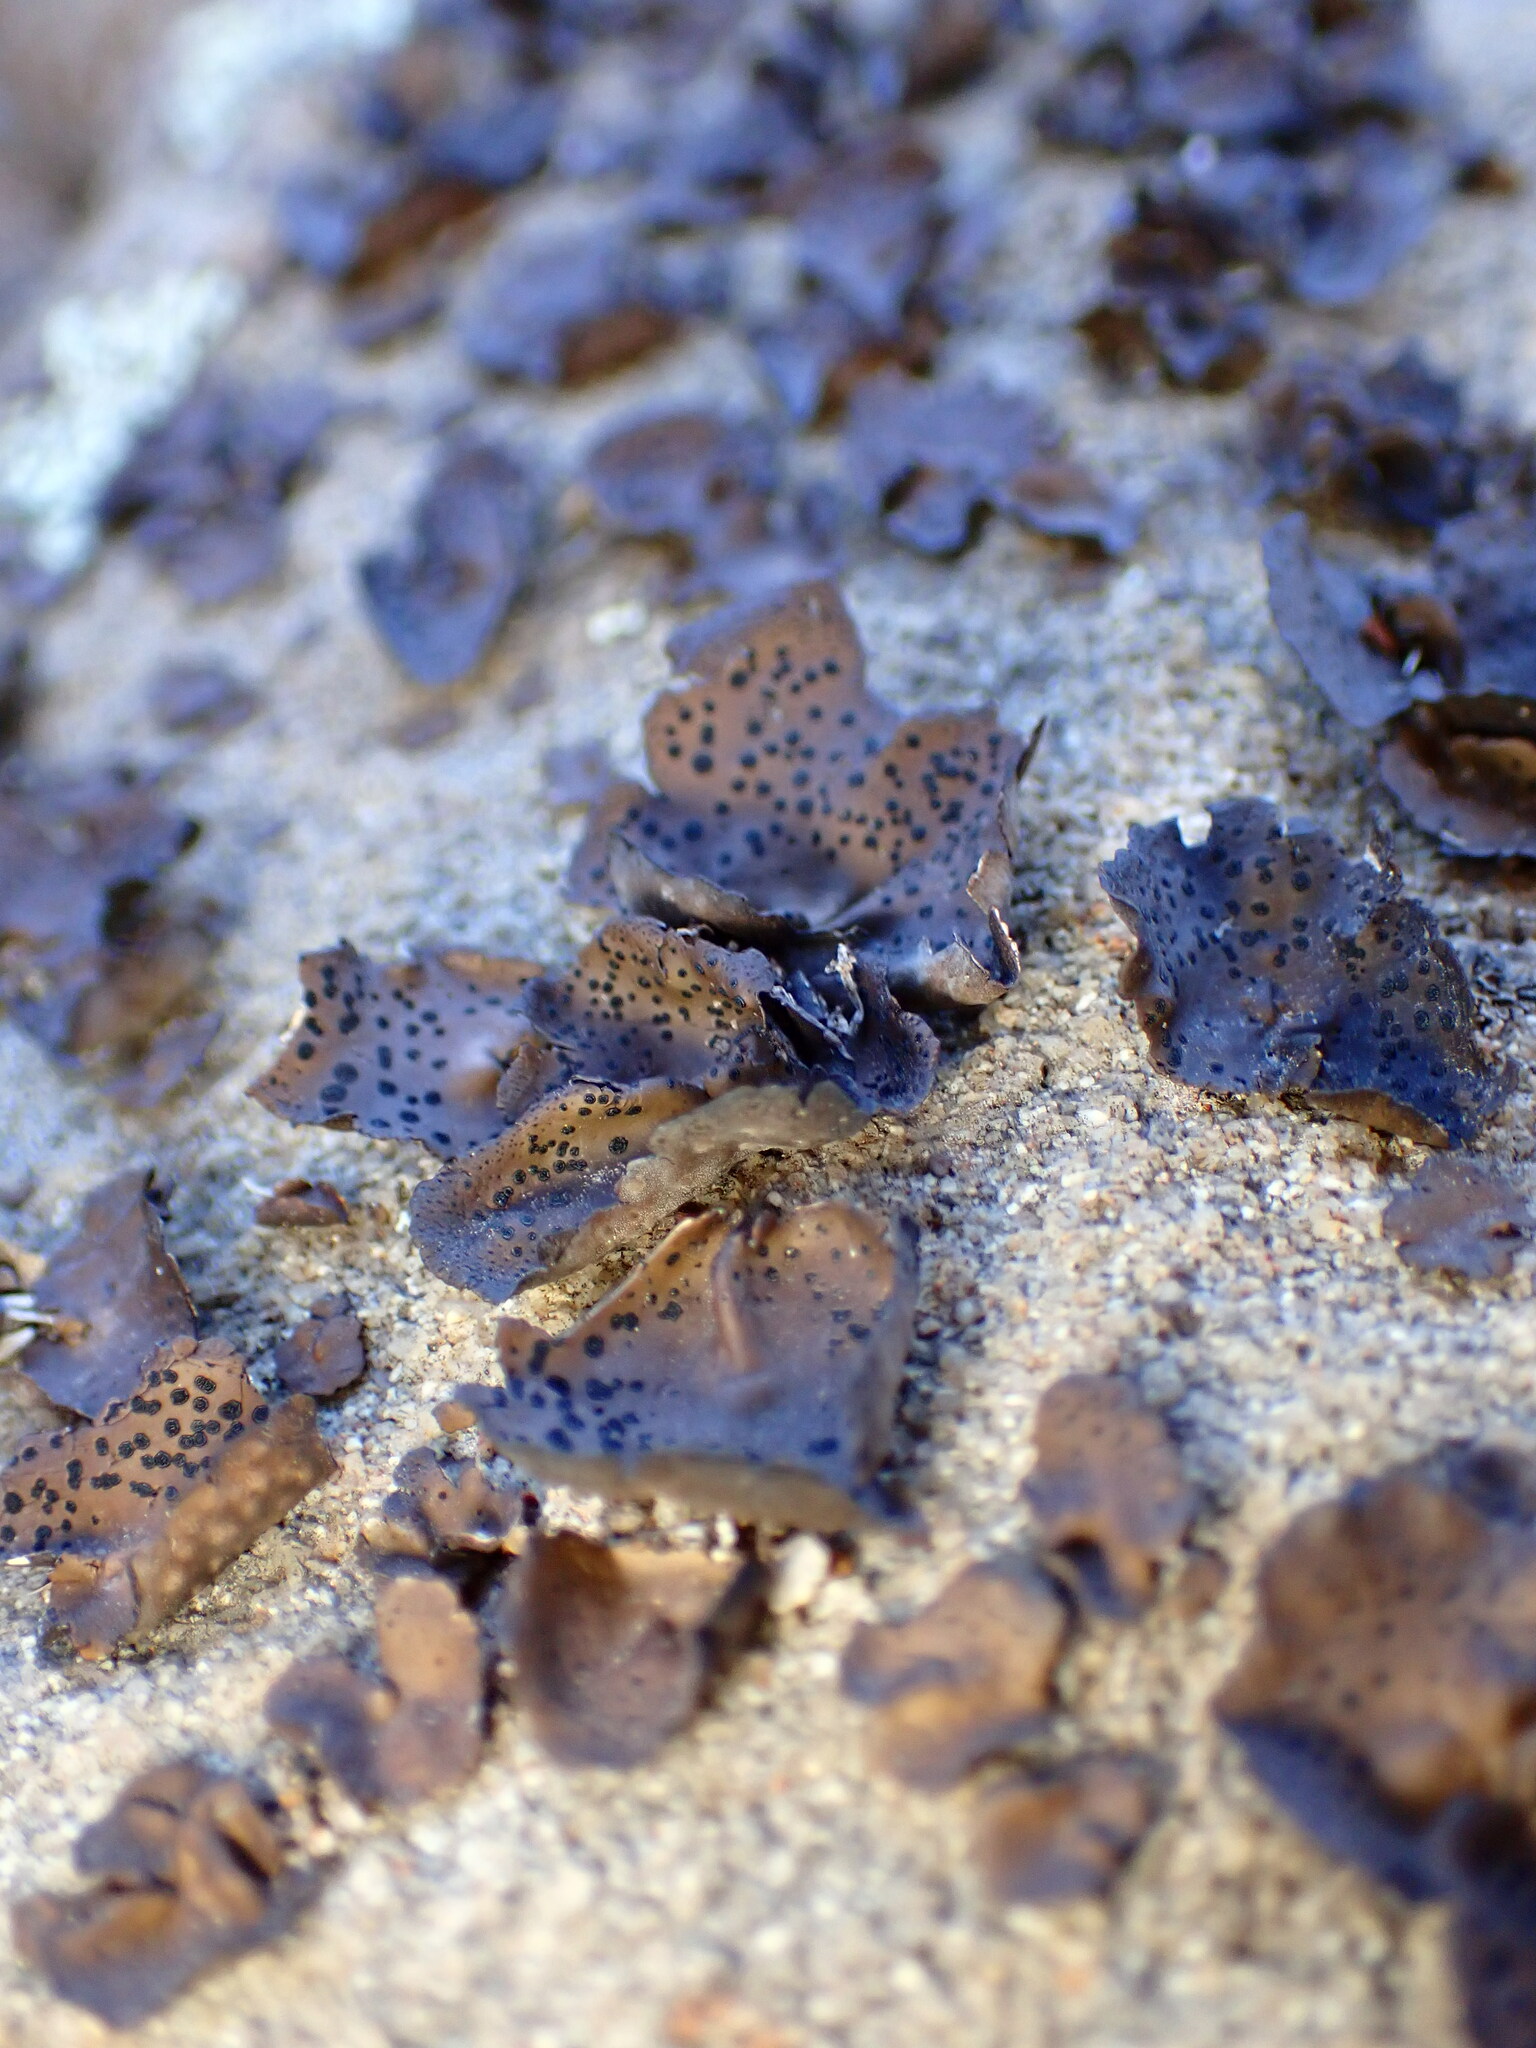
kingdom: Fungi
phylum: Ascomycota
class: Lecanoromycetes
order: Umbilicariales
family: Umbilicariaceae
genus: Umbilicaria
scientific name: Umbilicaria phaea
